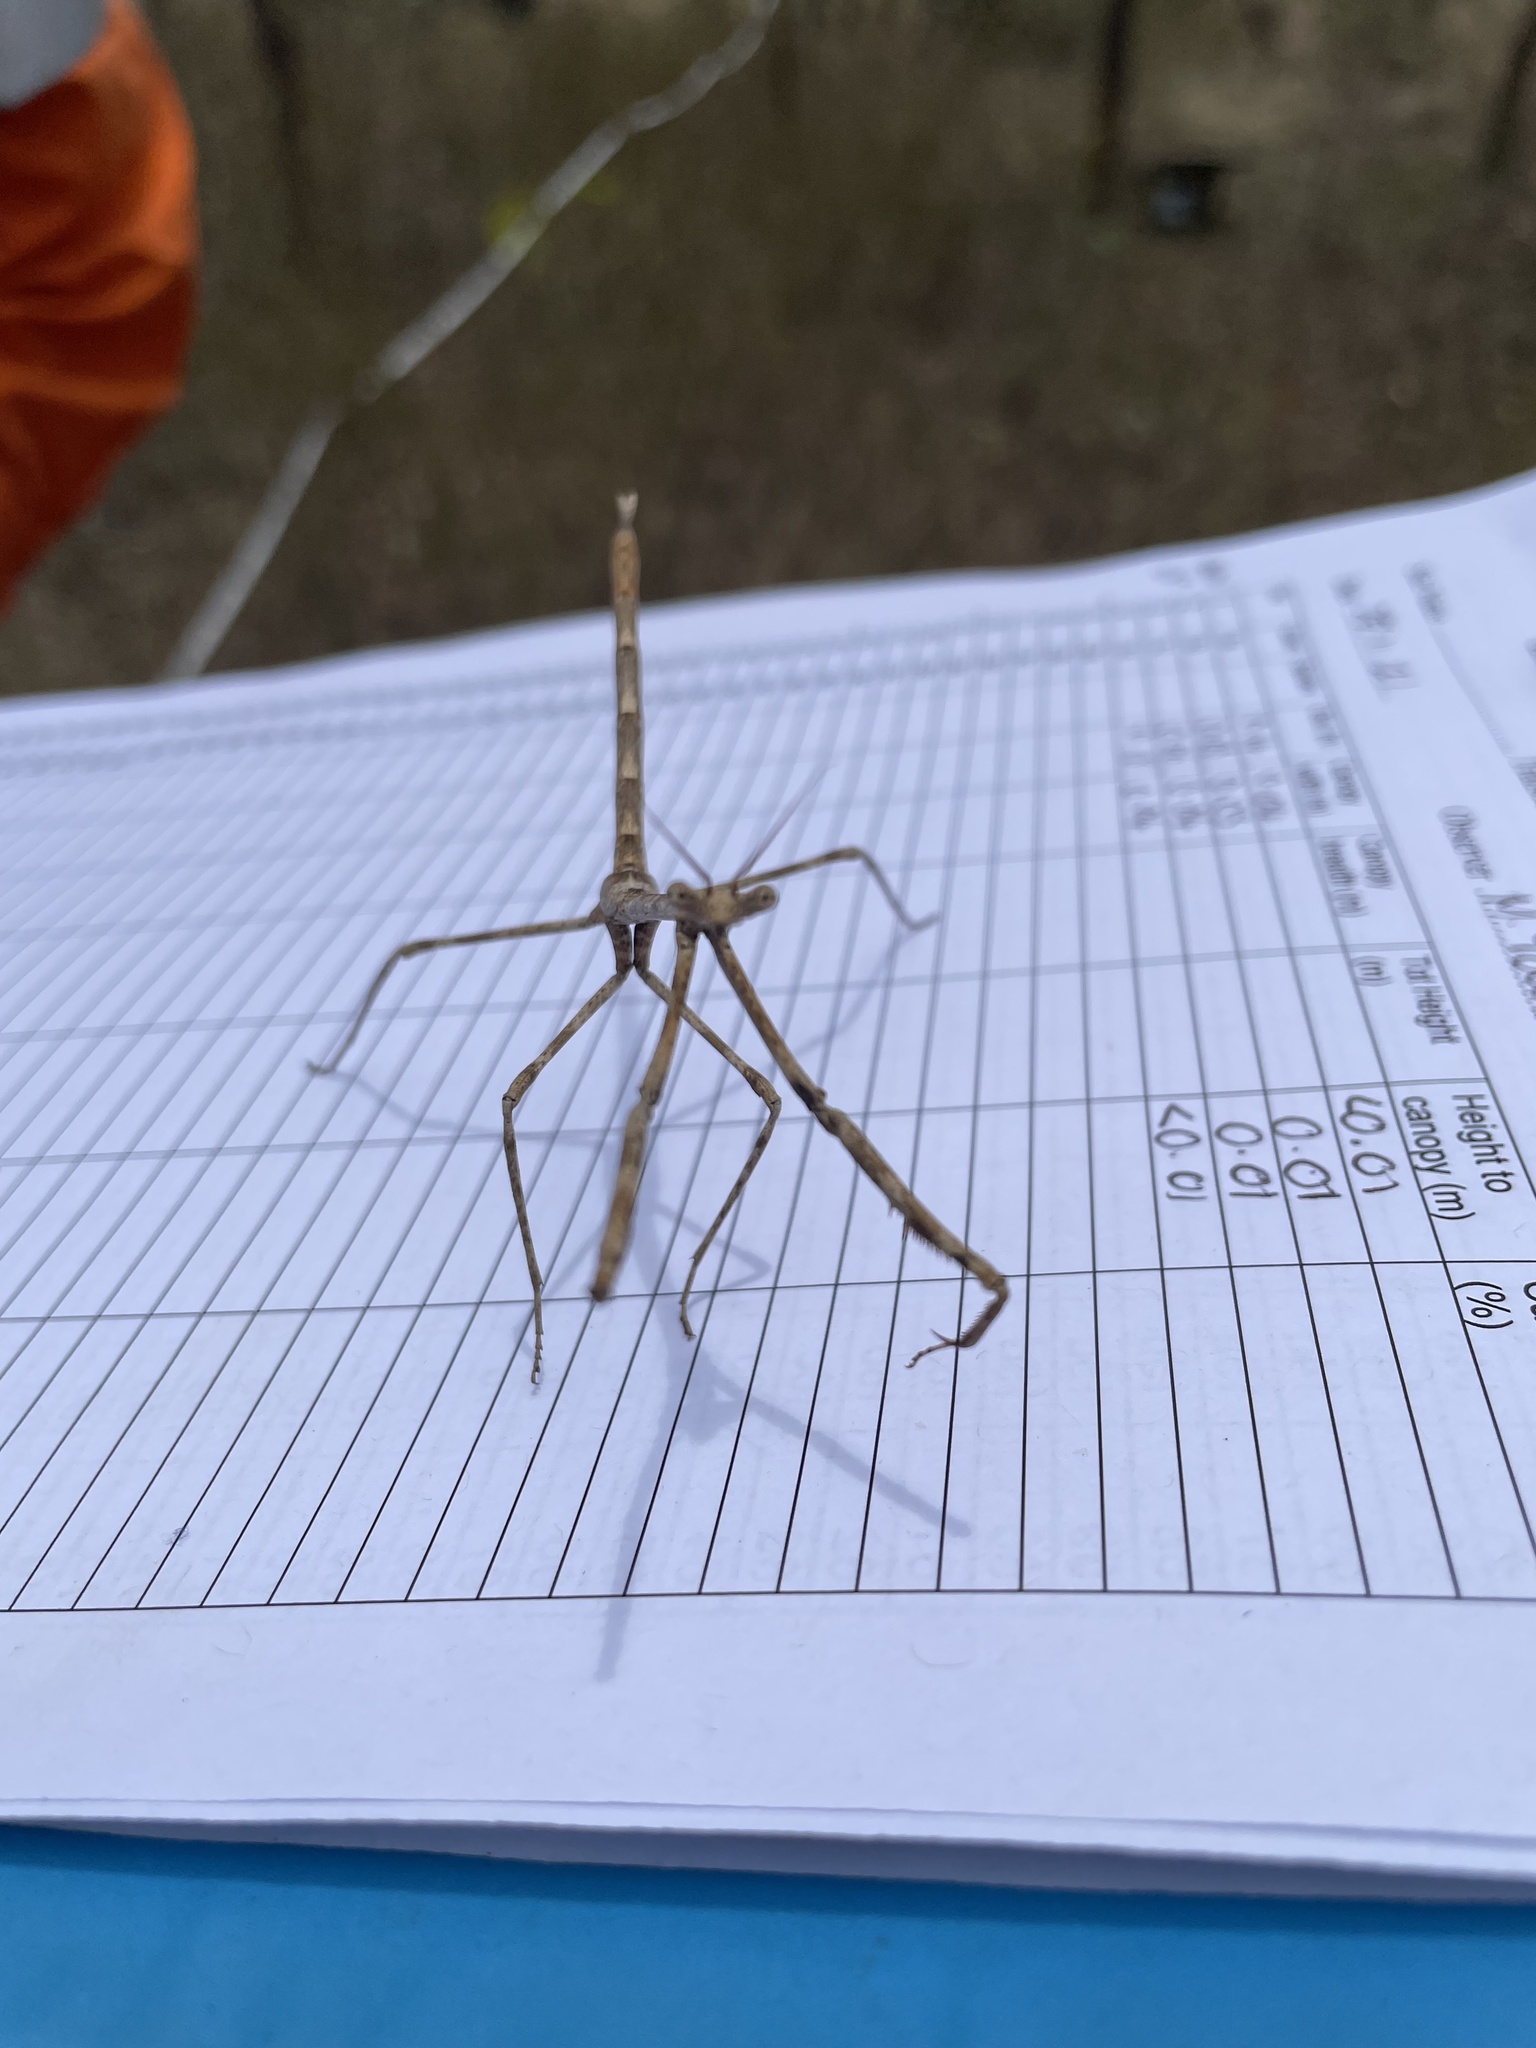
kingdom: Animalia
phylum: Arthropoda
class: Insecta
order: Mantodea
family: Mantidae
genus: Austrovates
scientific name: Austrovates variegata
